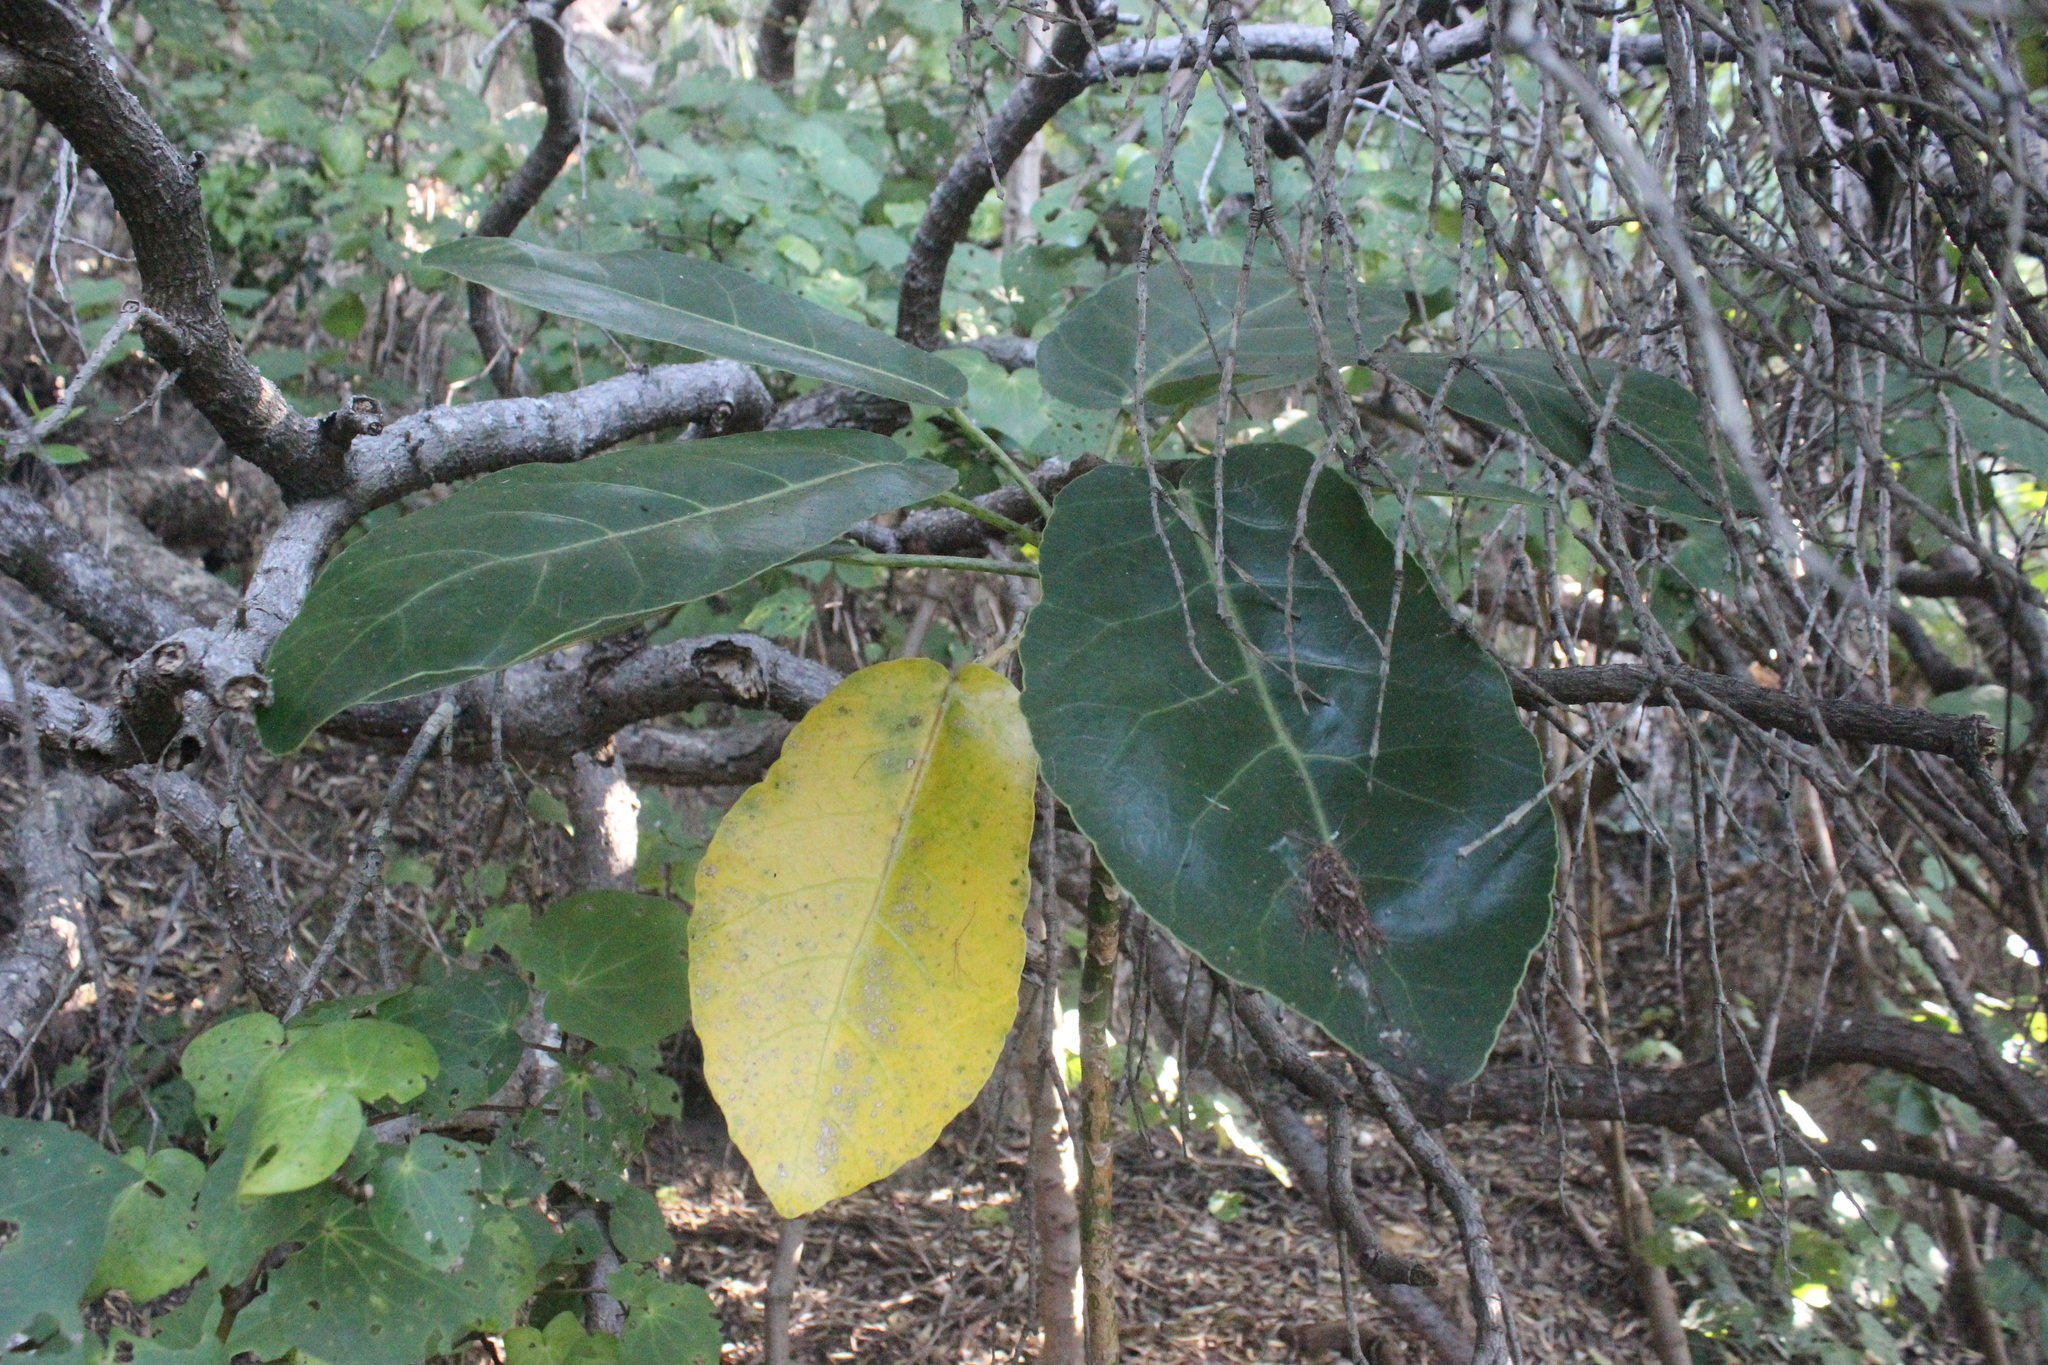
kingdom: Plantae
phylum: Tracheophyta
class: Magnoliopsida
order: Apiales
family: Araliaceae
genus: Meryta
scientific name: Meryta sinclairii
